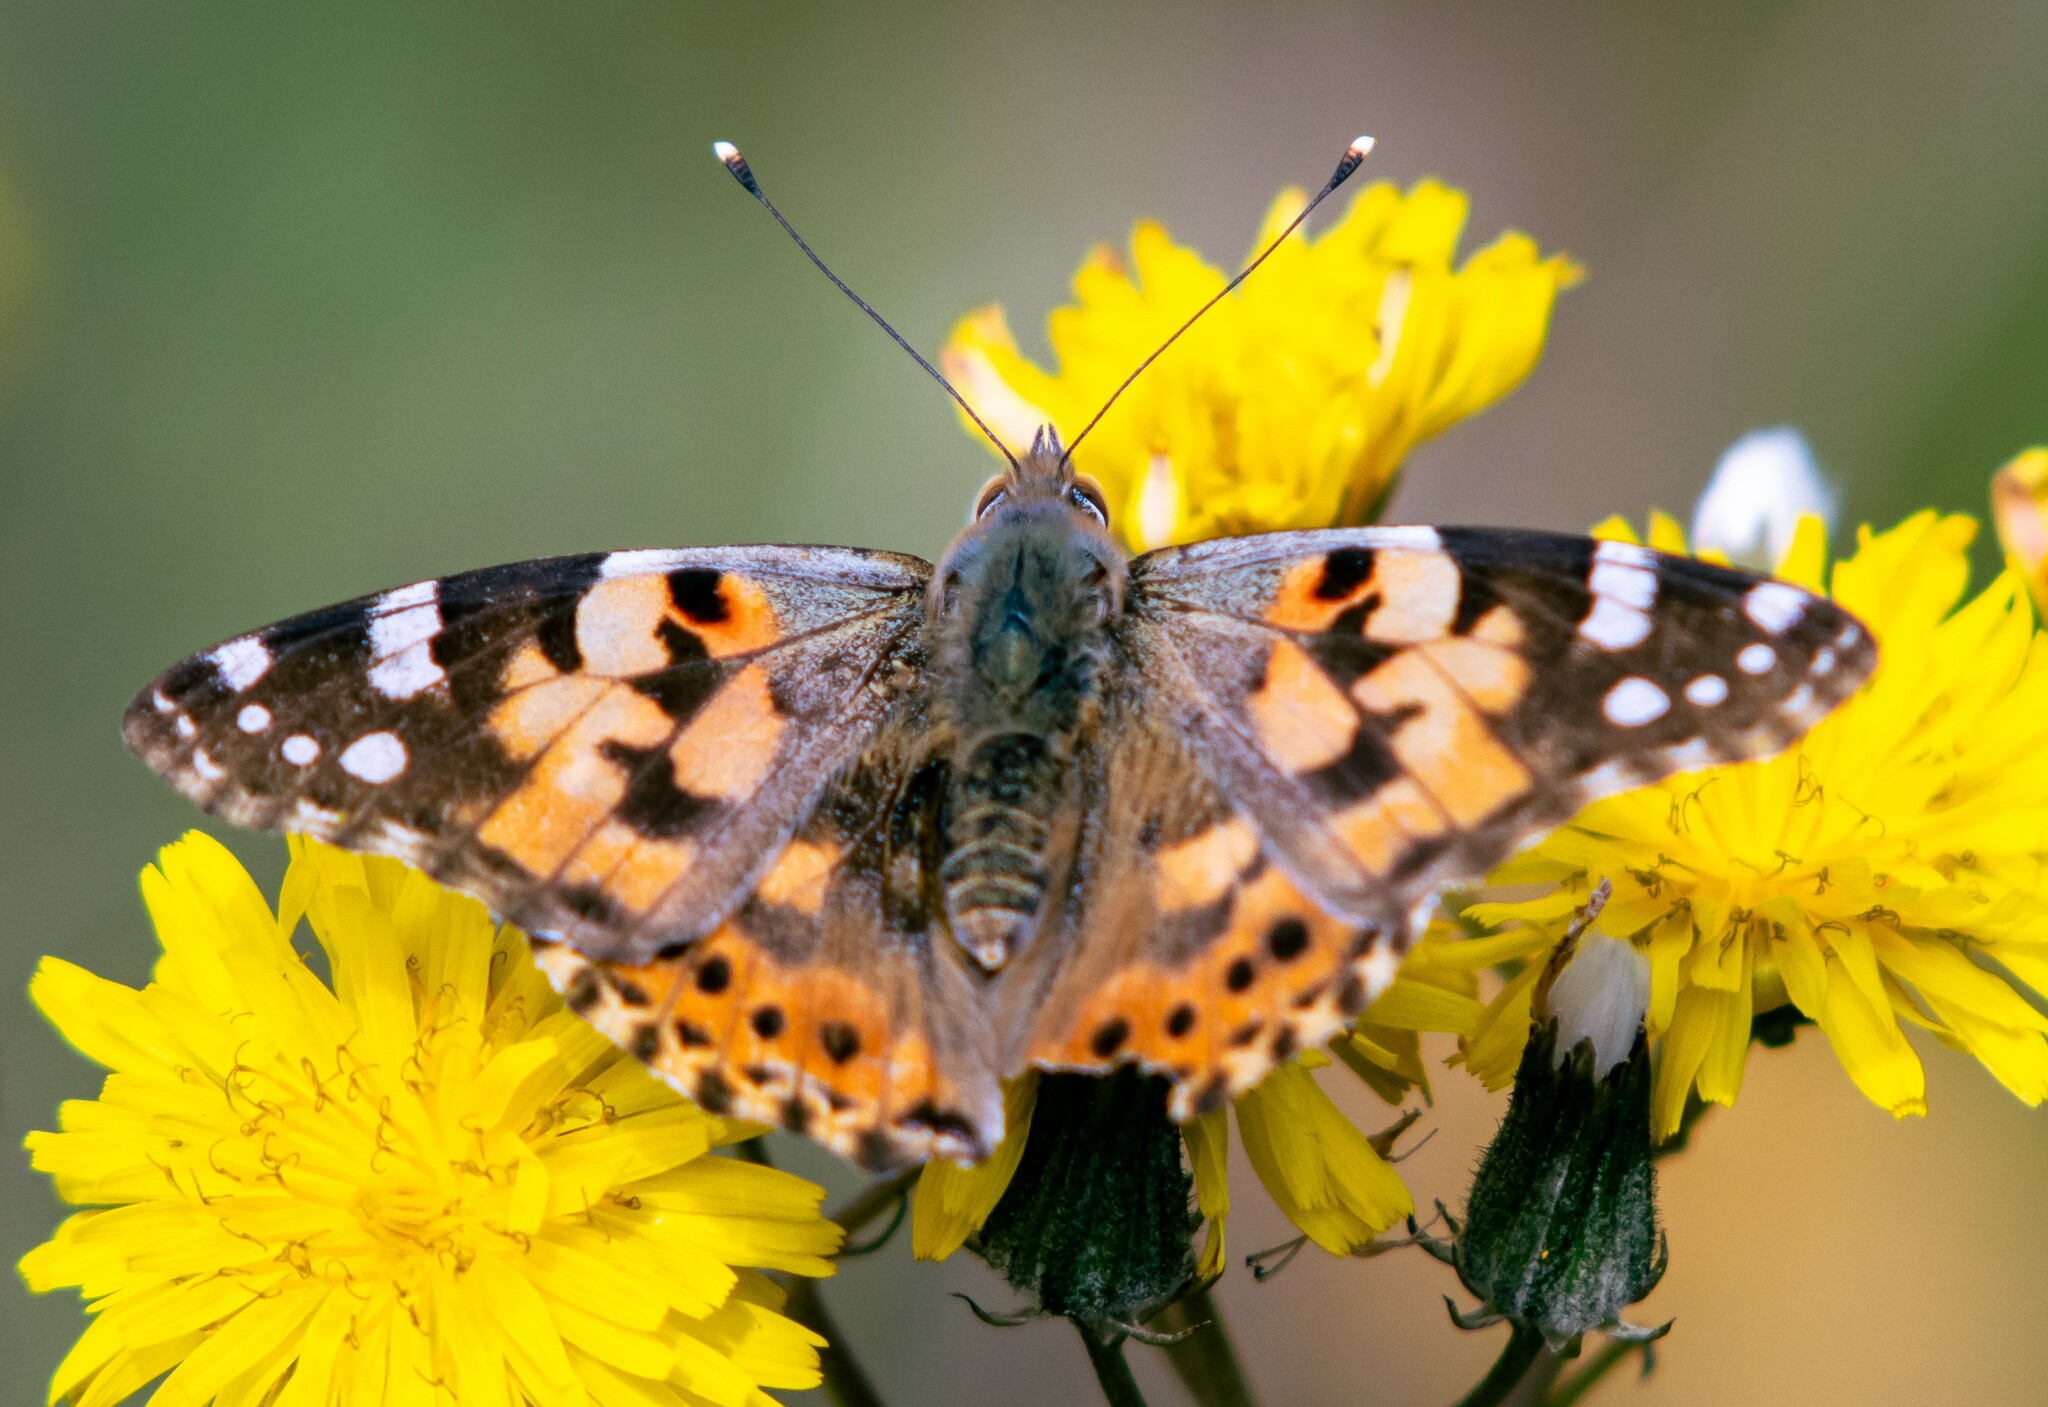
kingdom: Animalia
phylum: Arthropoda
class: Insecta
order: Lepidoptera
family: Nymphalidae
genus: Vanessa
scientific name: Vanessa cardui
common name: Painted lady
